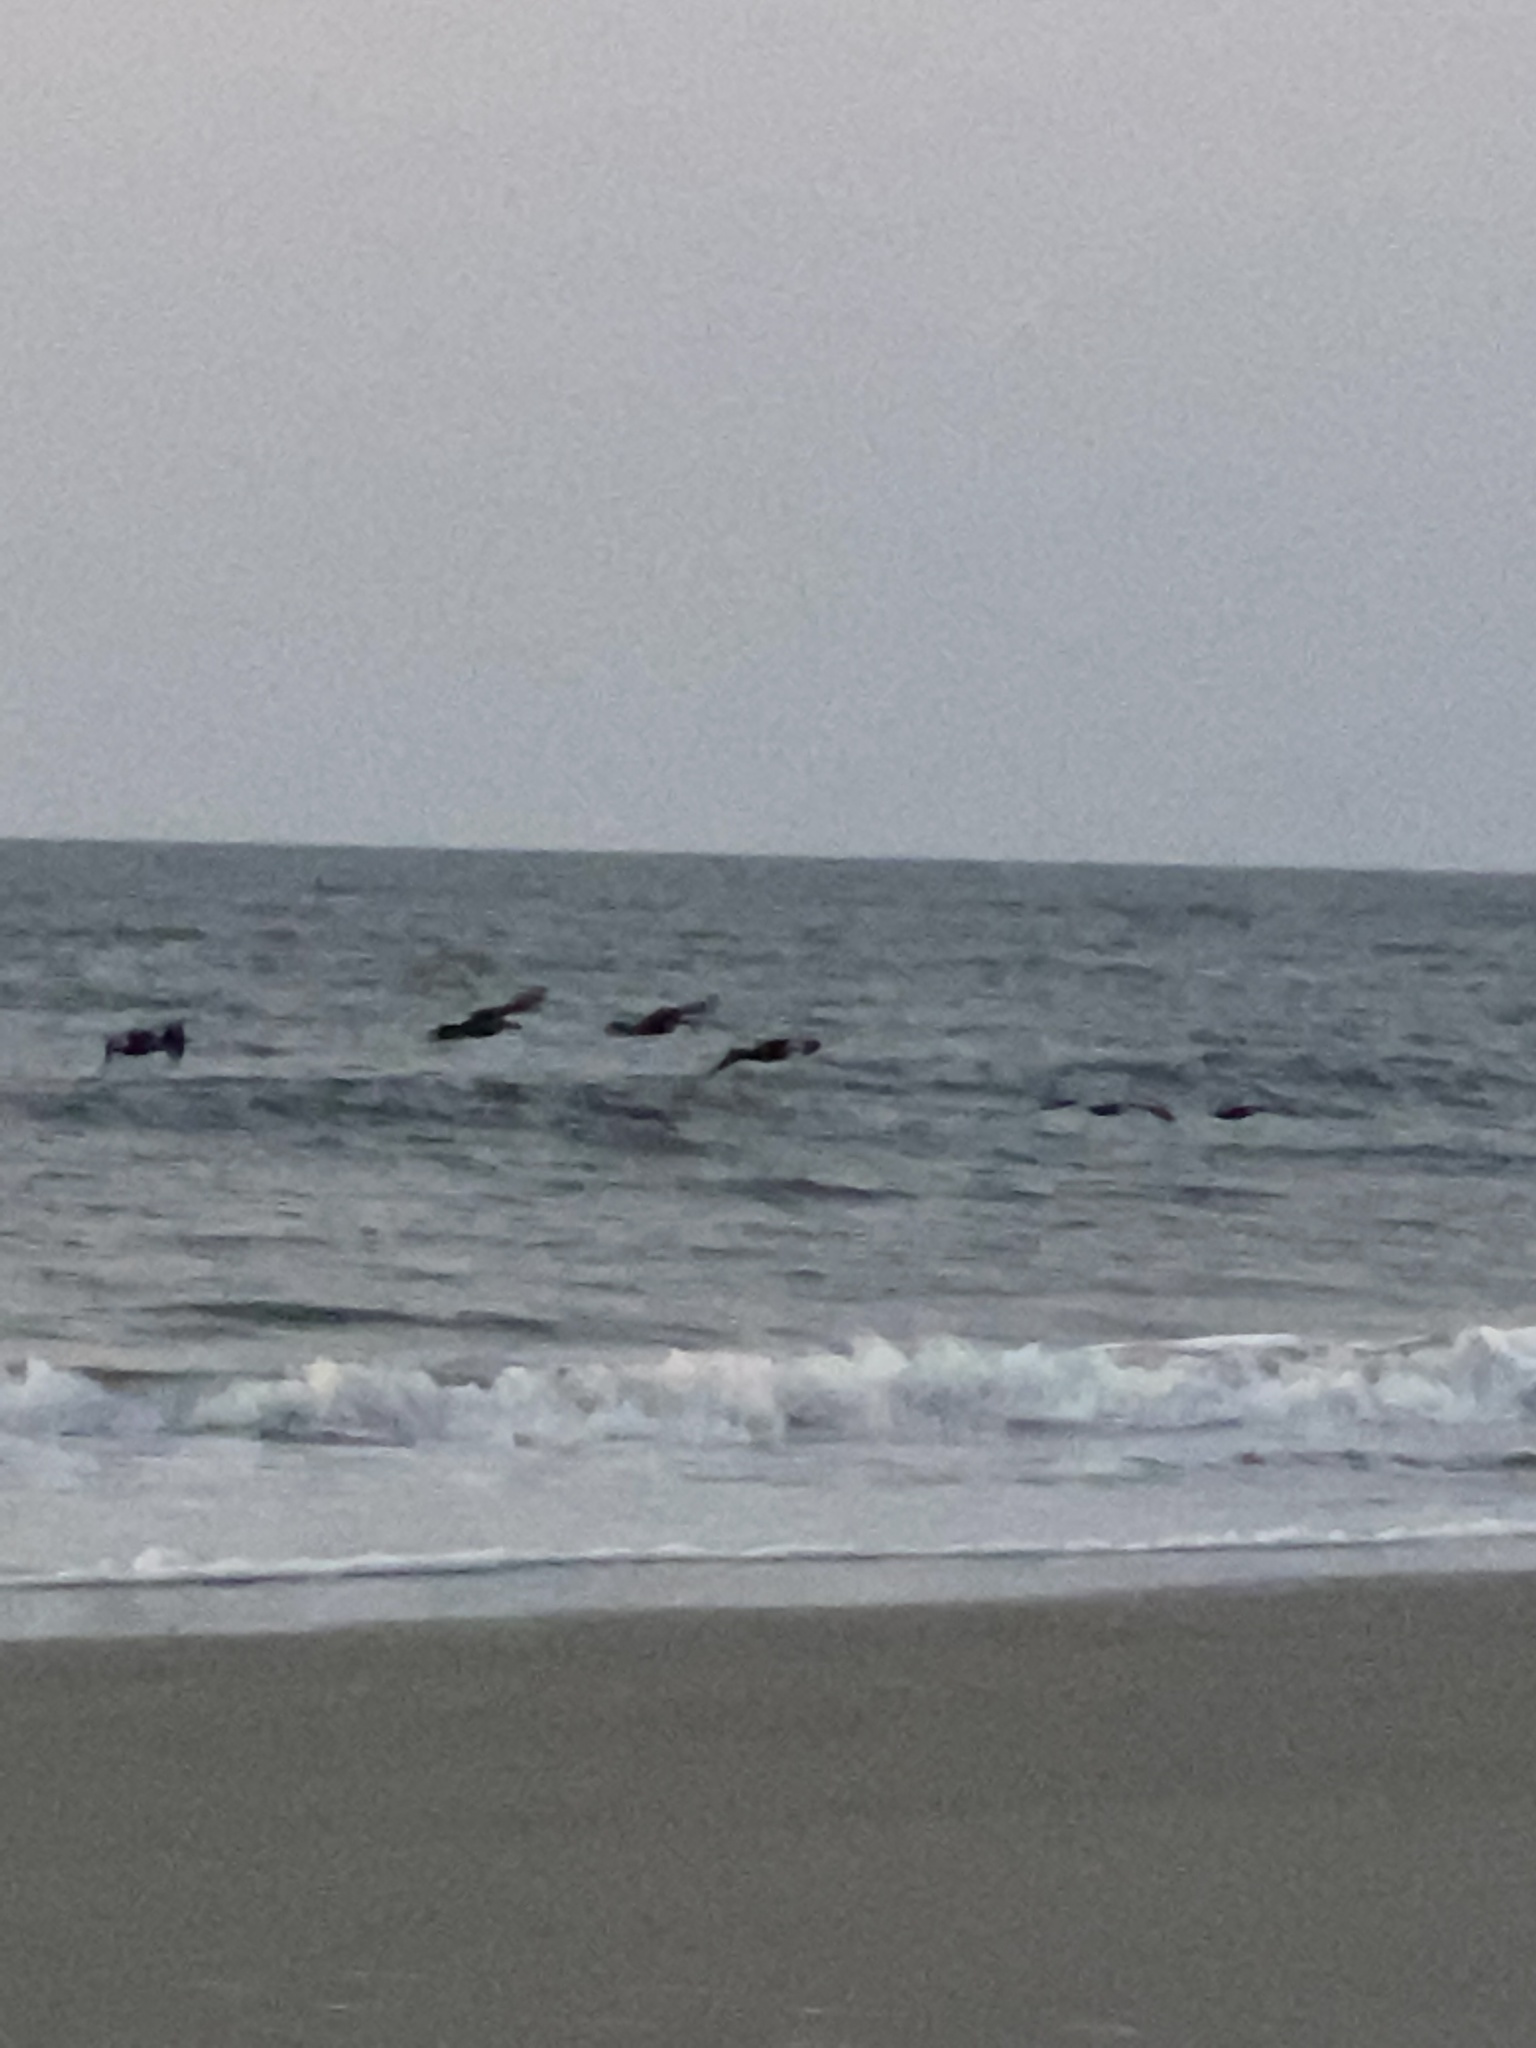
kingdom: Animalia
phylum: Chordata
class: Aves
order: Pelecaniformes
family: Pelecanidae
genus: Pelecanus
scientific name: Pelecanus occidentalis
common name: Brown pelican
